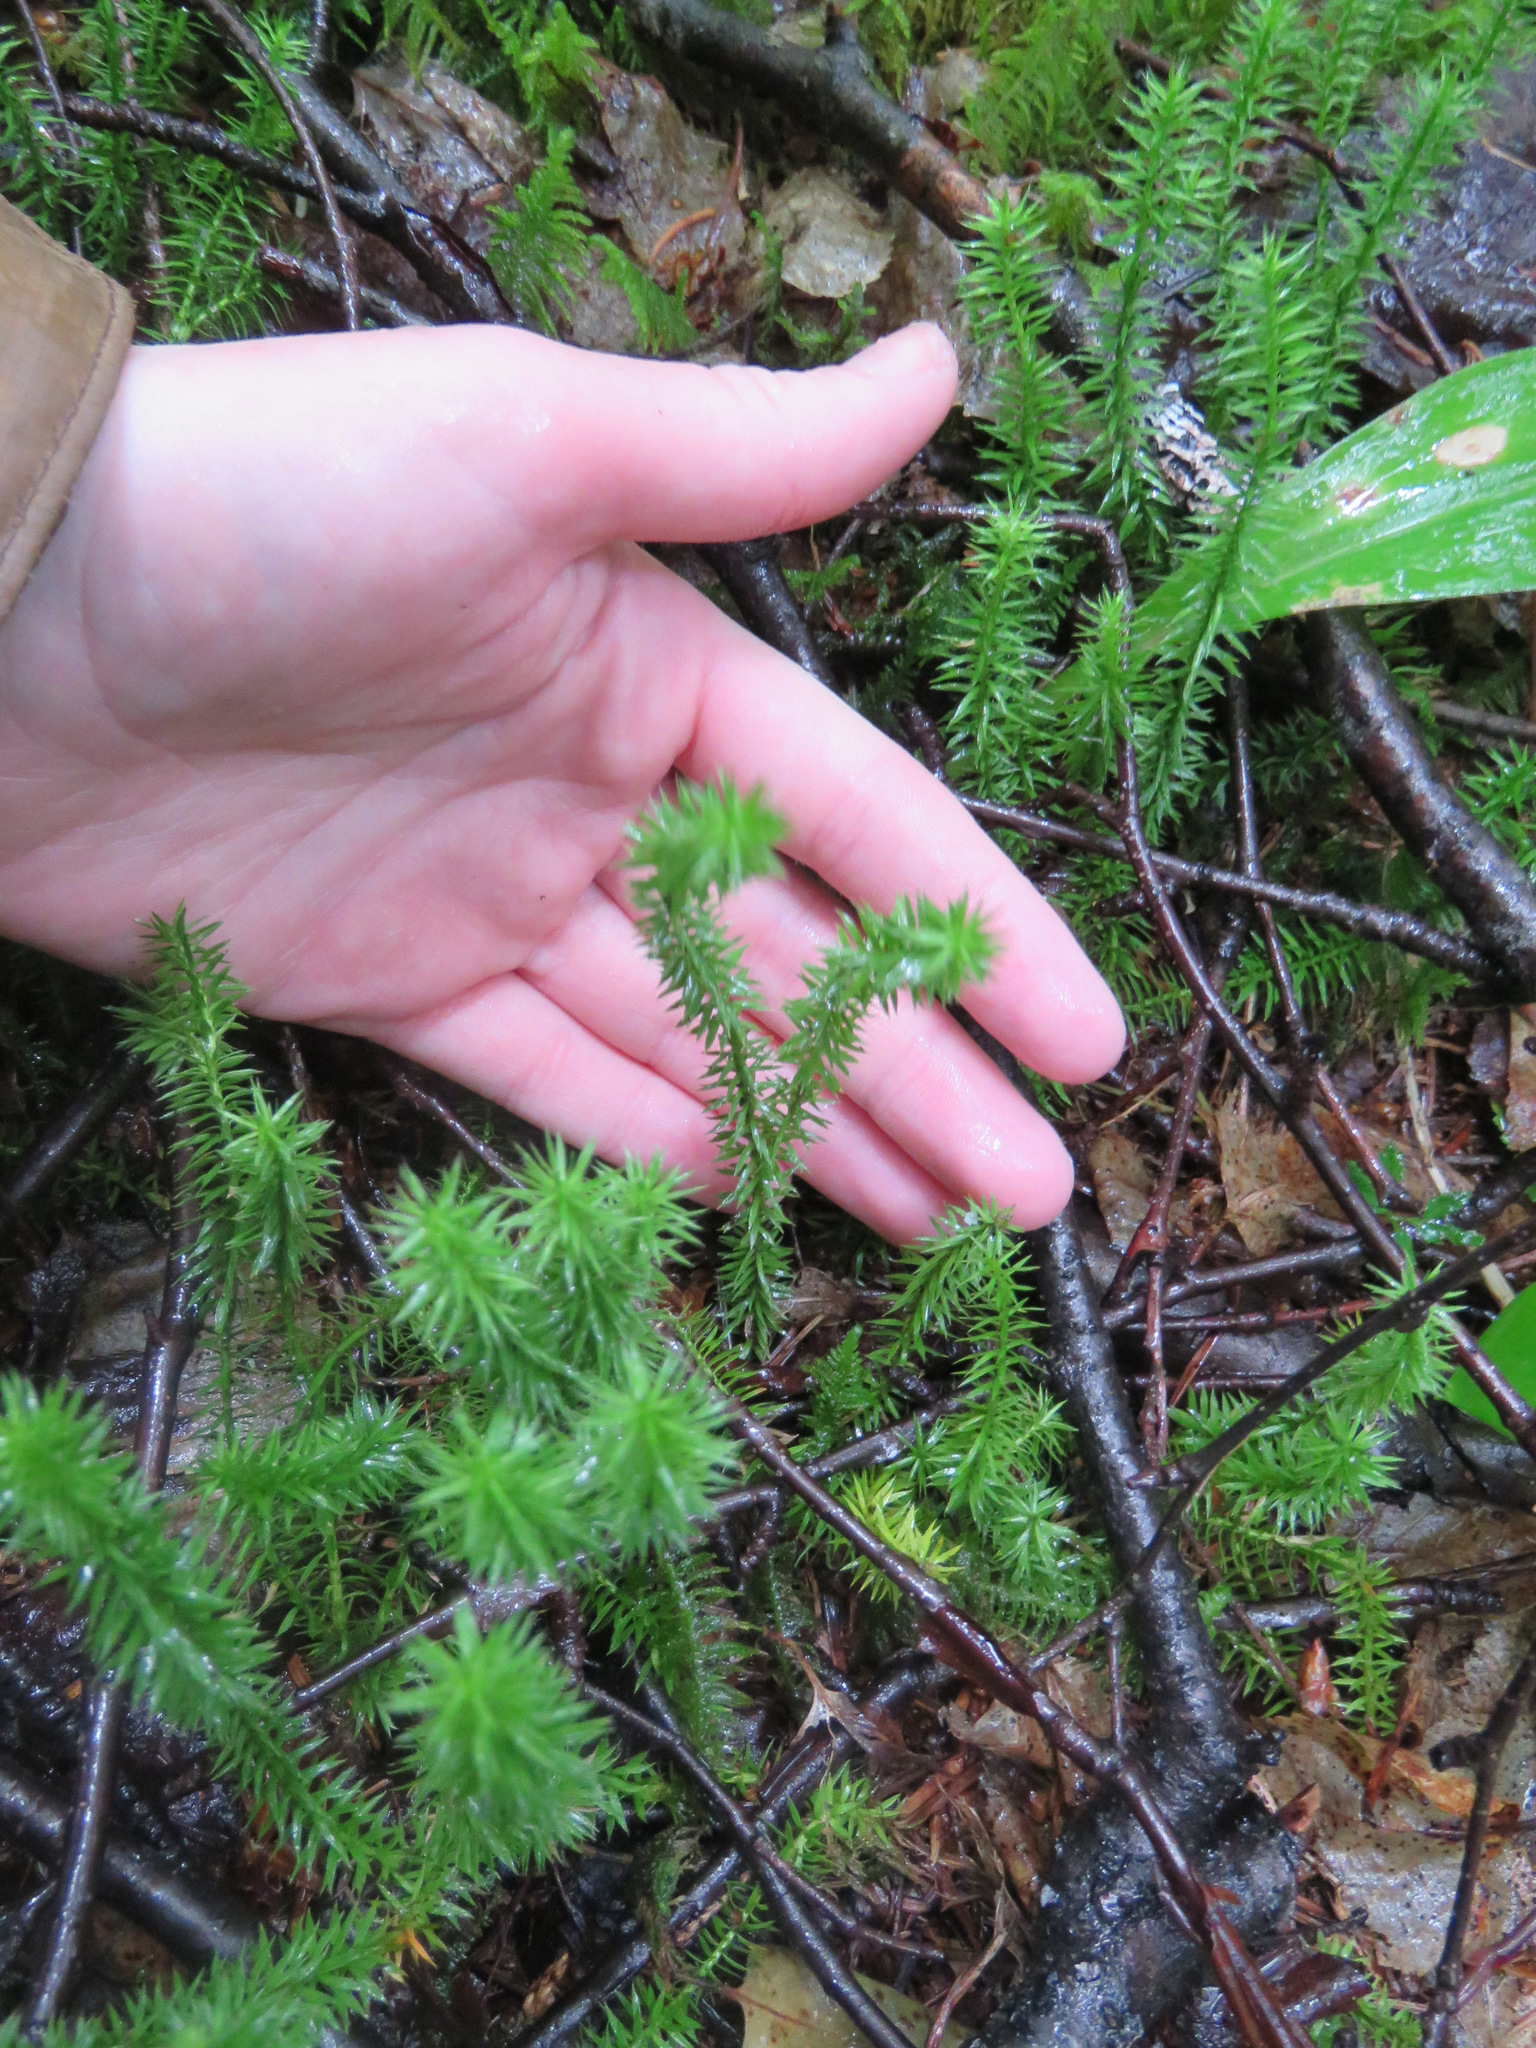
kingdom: Plantae
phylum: Tracheophyta
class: Lycopodiopsida
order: Lycopodiales
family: Lycopodiaceae
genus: Spinulum
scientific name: Spinulum annotinum
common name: Interrupted club-moss
